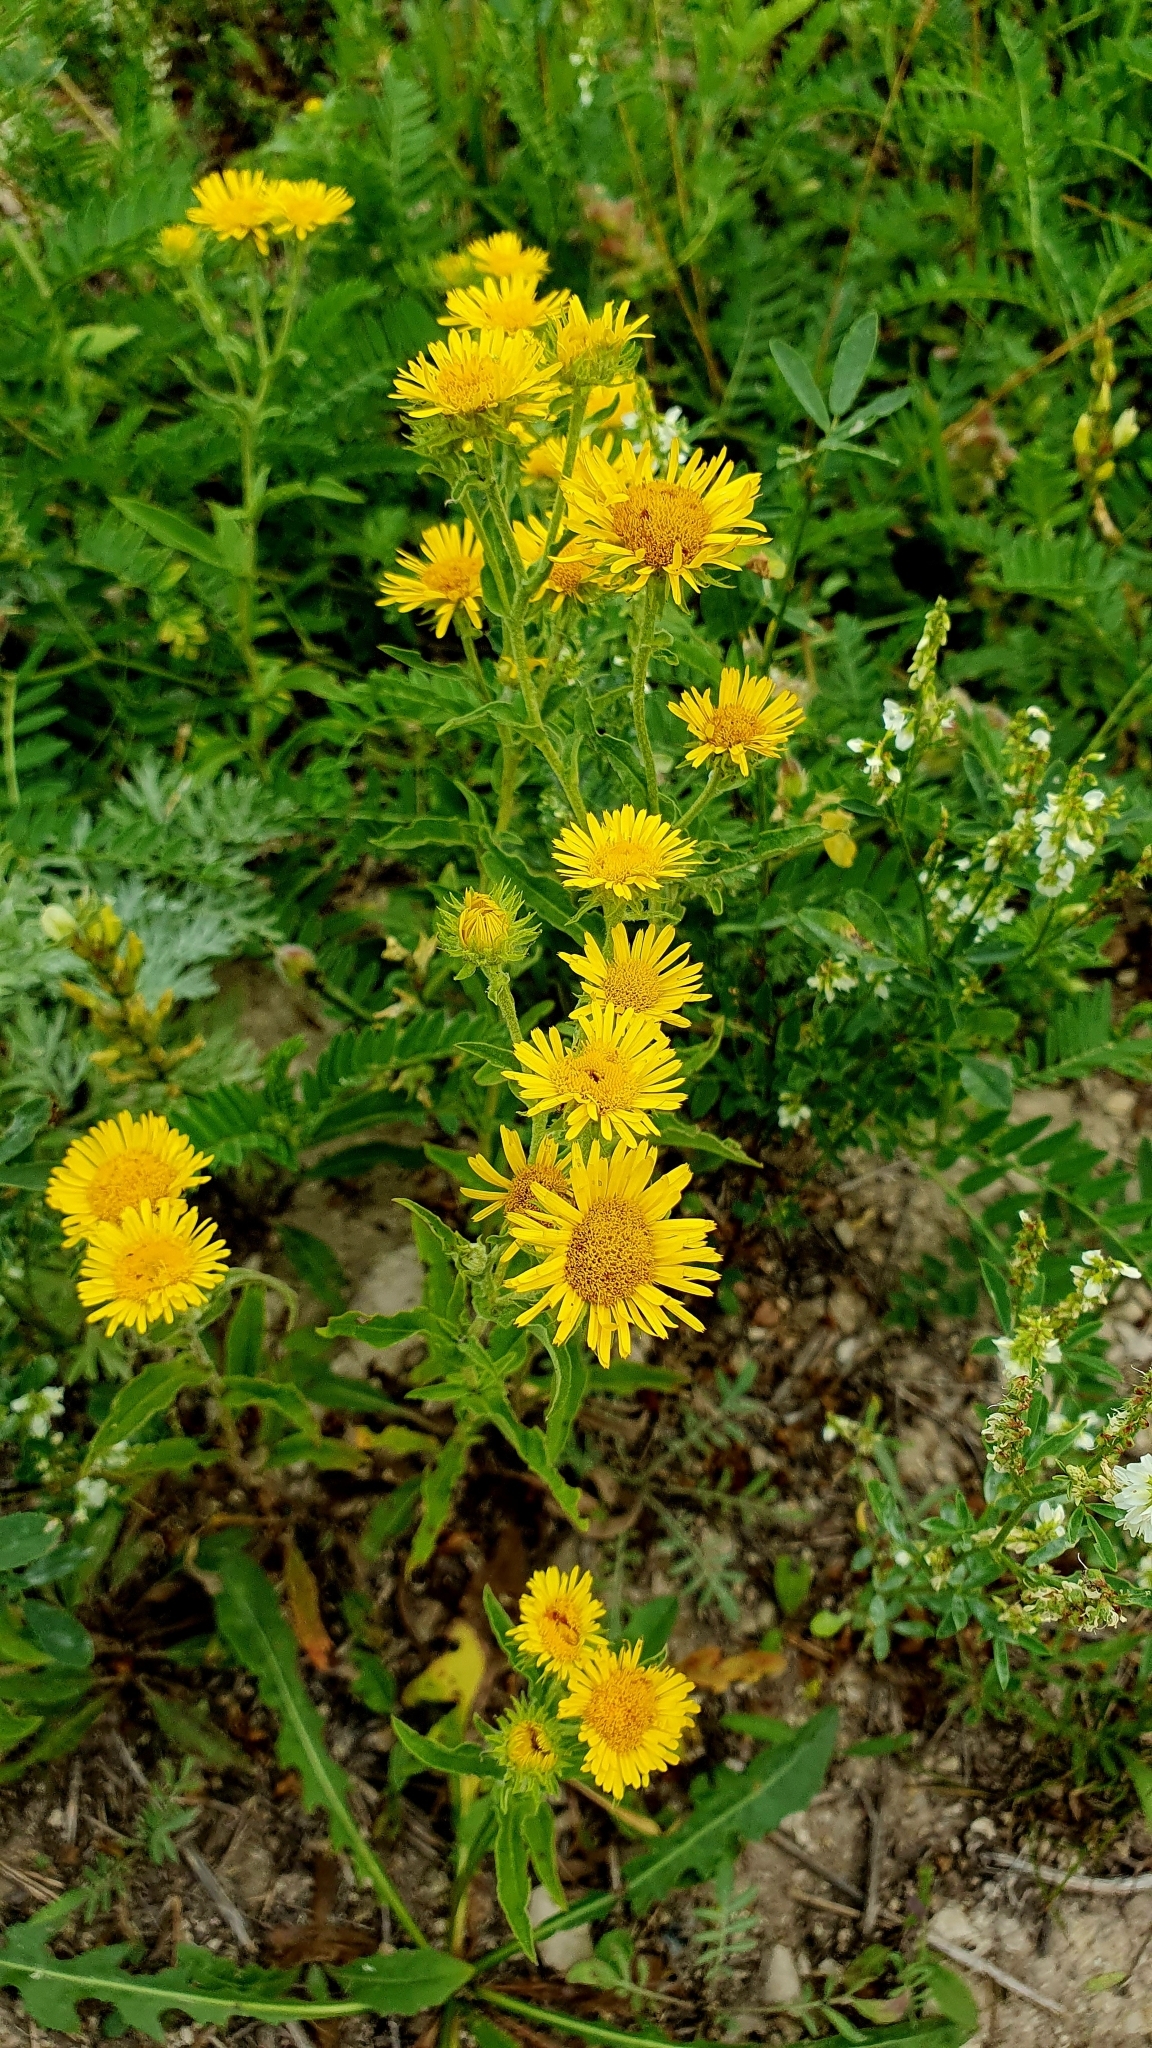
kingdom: Plantae
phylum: Tracheophyta
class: Magnoliopsida
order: Asterales
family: Asteraceae
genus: Pentanema
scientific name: Pentanema britannicum
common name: British elecampane
